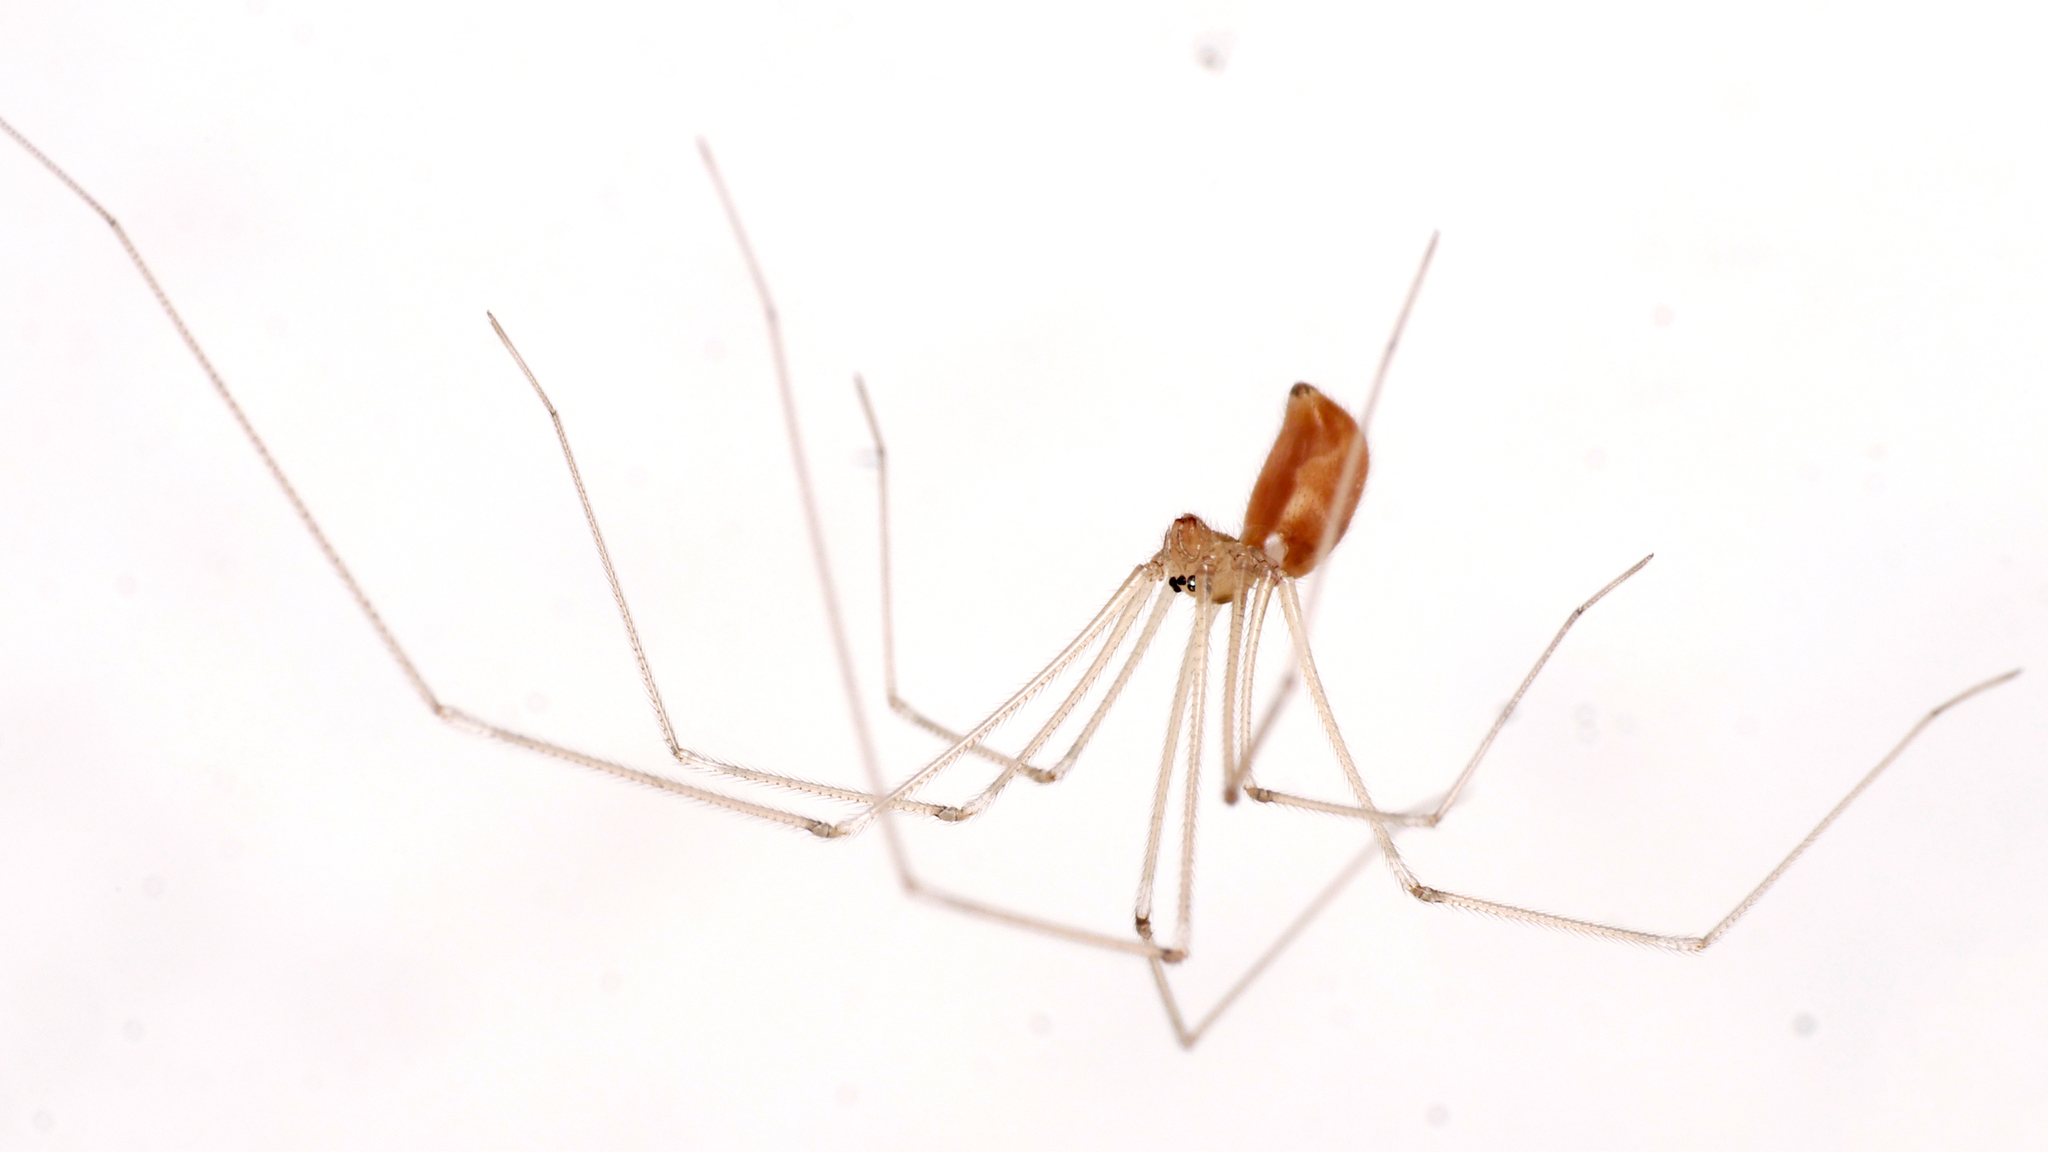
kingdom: Animalia
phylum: Arthropoda
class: Arachnida
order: Araneae
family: Pholcidae
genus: Pholcus
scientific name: Pholcus phalangioides
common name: Longbodied cellar spider
